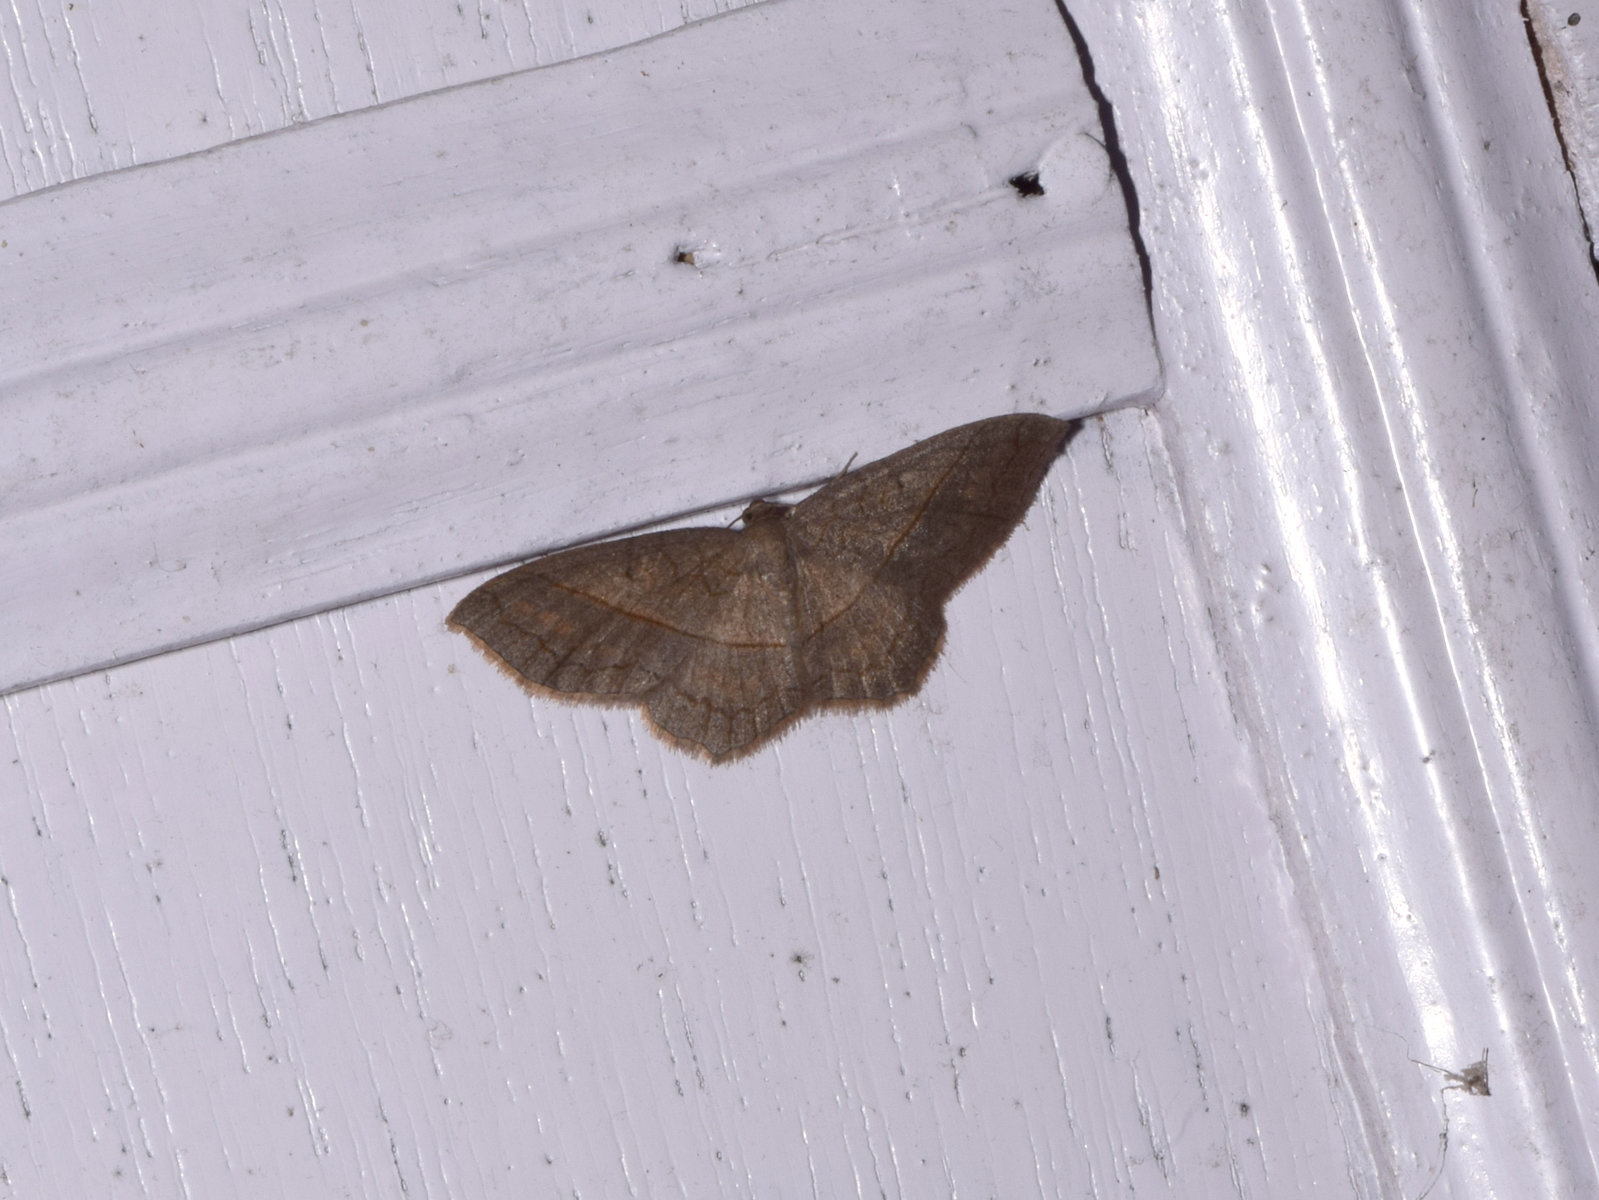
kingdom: Animalia
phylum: Arthropoda
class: Insecta
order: Lepidoptera
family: Geometridae
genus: Hydrelia
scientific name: Hydrelia sericea
